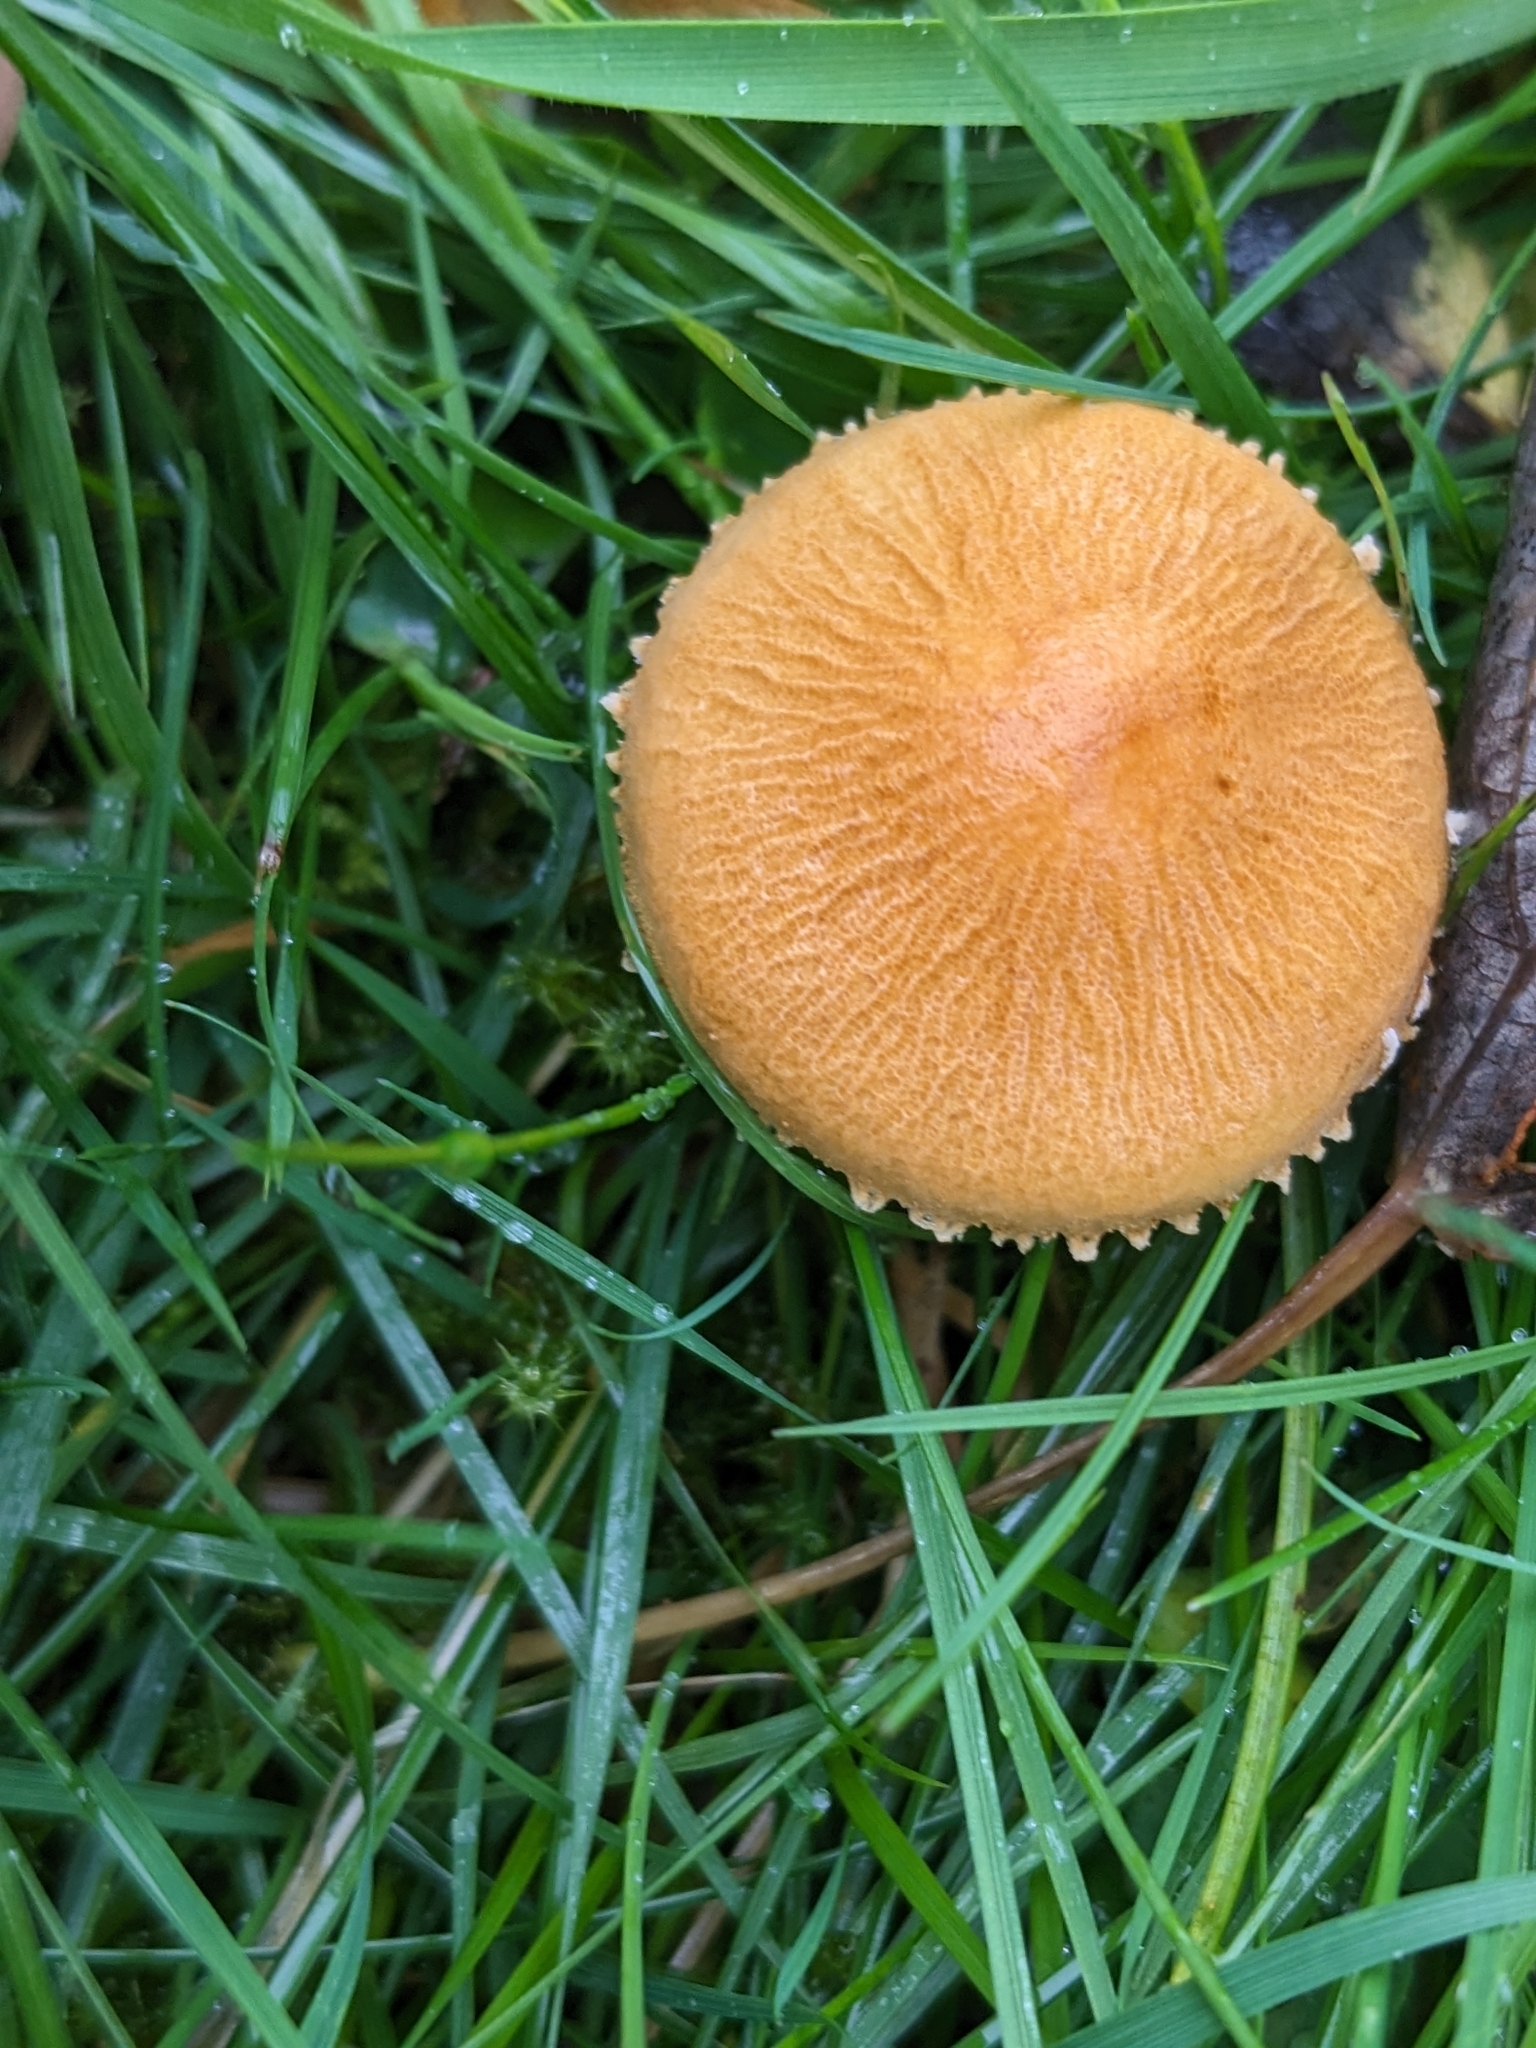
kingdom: Fungi
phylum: Basidiomycota
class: Agaricomycetes
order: Agaricales
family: Tricholomataceae
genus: Cystoderma
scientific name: Cystoderma amianthinum
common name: Earthy powdercap
